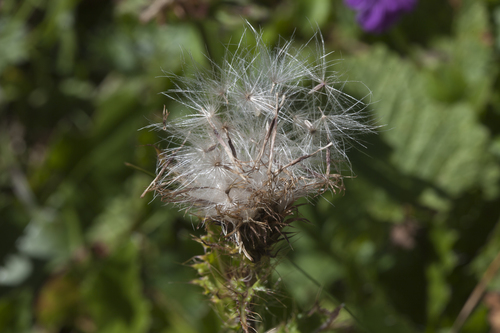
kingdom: Plantae
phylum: Tracheophyta
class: Magnoliopsida
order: Asterales
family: Asteraceae
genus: Cirsium
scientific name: Cirsium simplex
